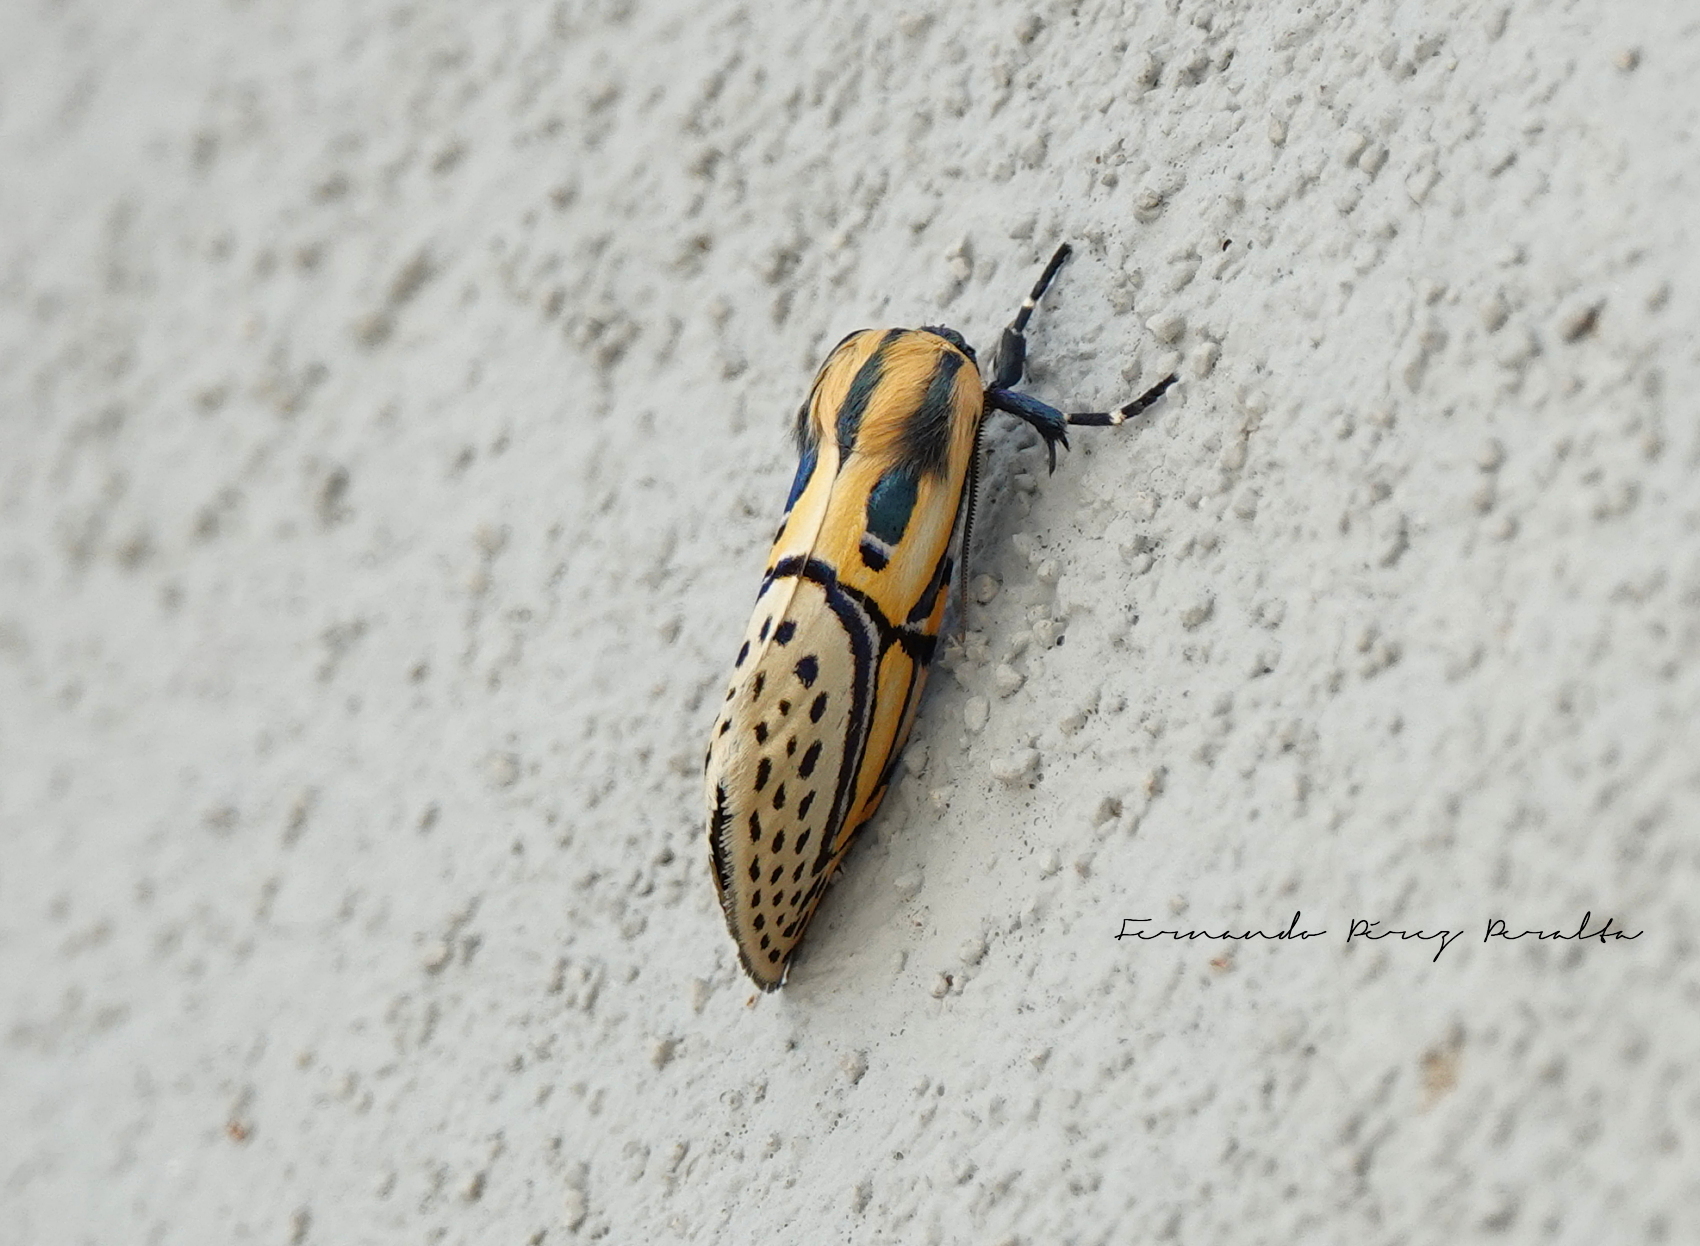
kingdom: Animalia
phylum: Arthropoda
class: Insecta
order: Lepidoptera
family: Erebidae
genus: Diphthera
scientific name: Diphthera festiva
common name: Hieroglyphic moth
